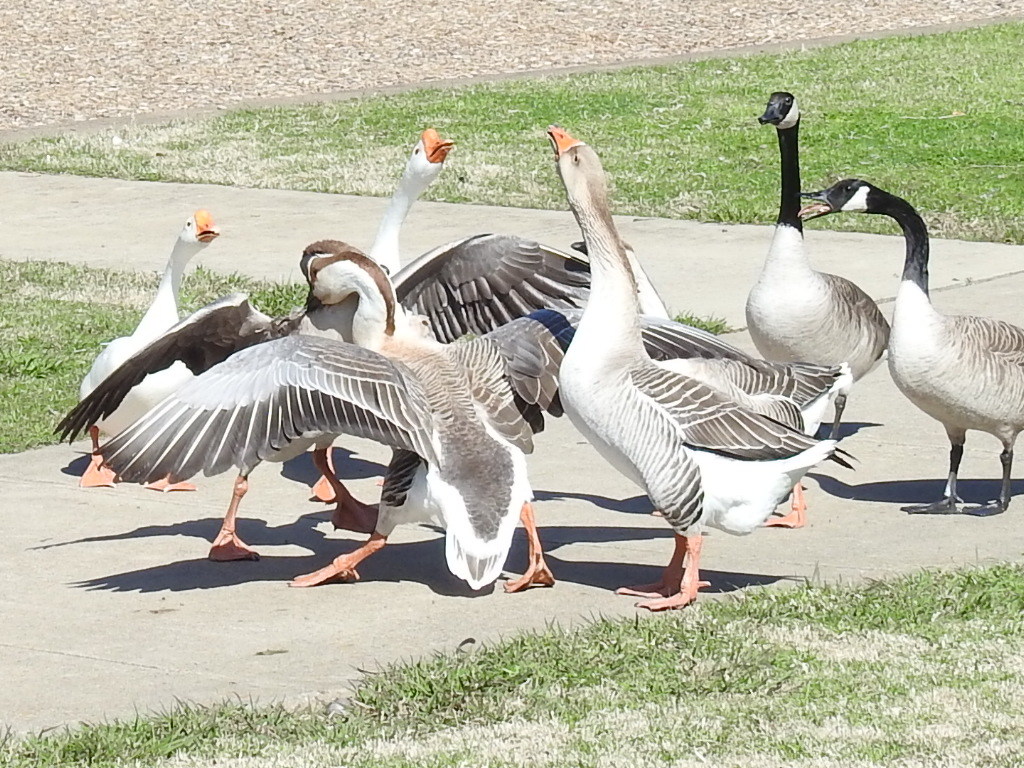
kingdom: Animalia
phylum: Chordata
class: Aves
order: Anseriformes
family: Anatidae
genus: Anser
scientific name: Anser
